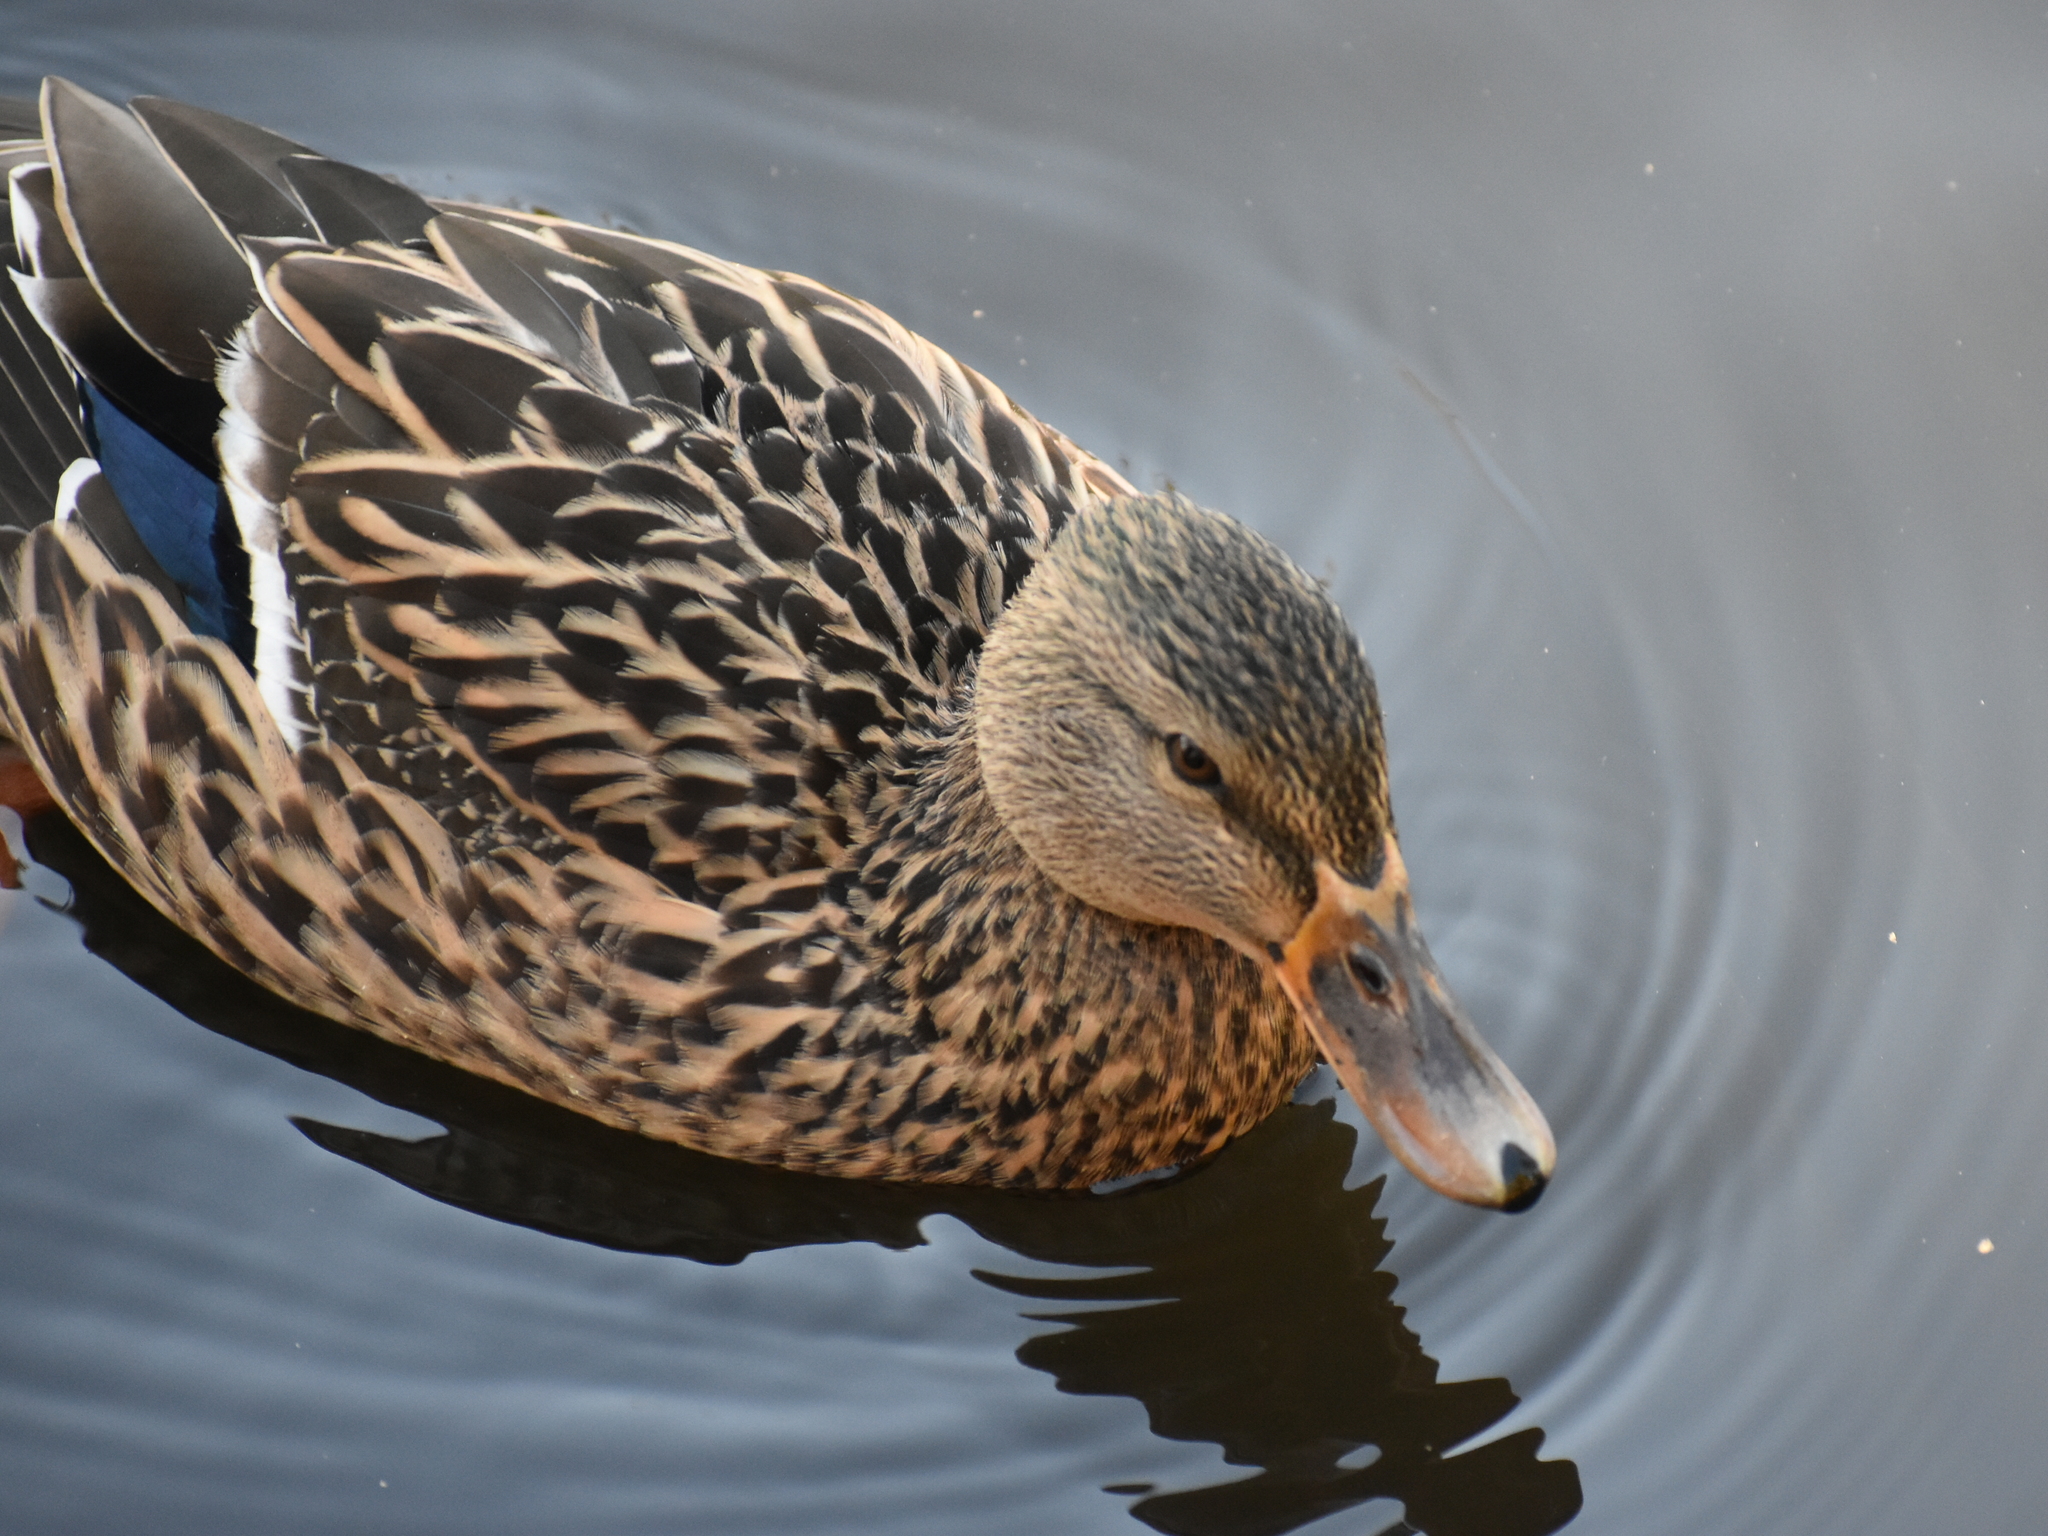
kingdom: Animalia
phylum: Chordata
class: Aves
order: Anseriformes
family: Anatidae
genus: Anas
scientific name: Anas platyrhynchos
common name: Mallard
